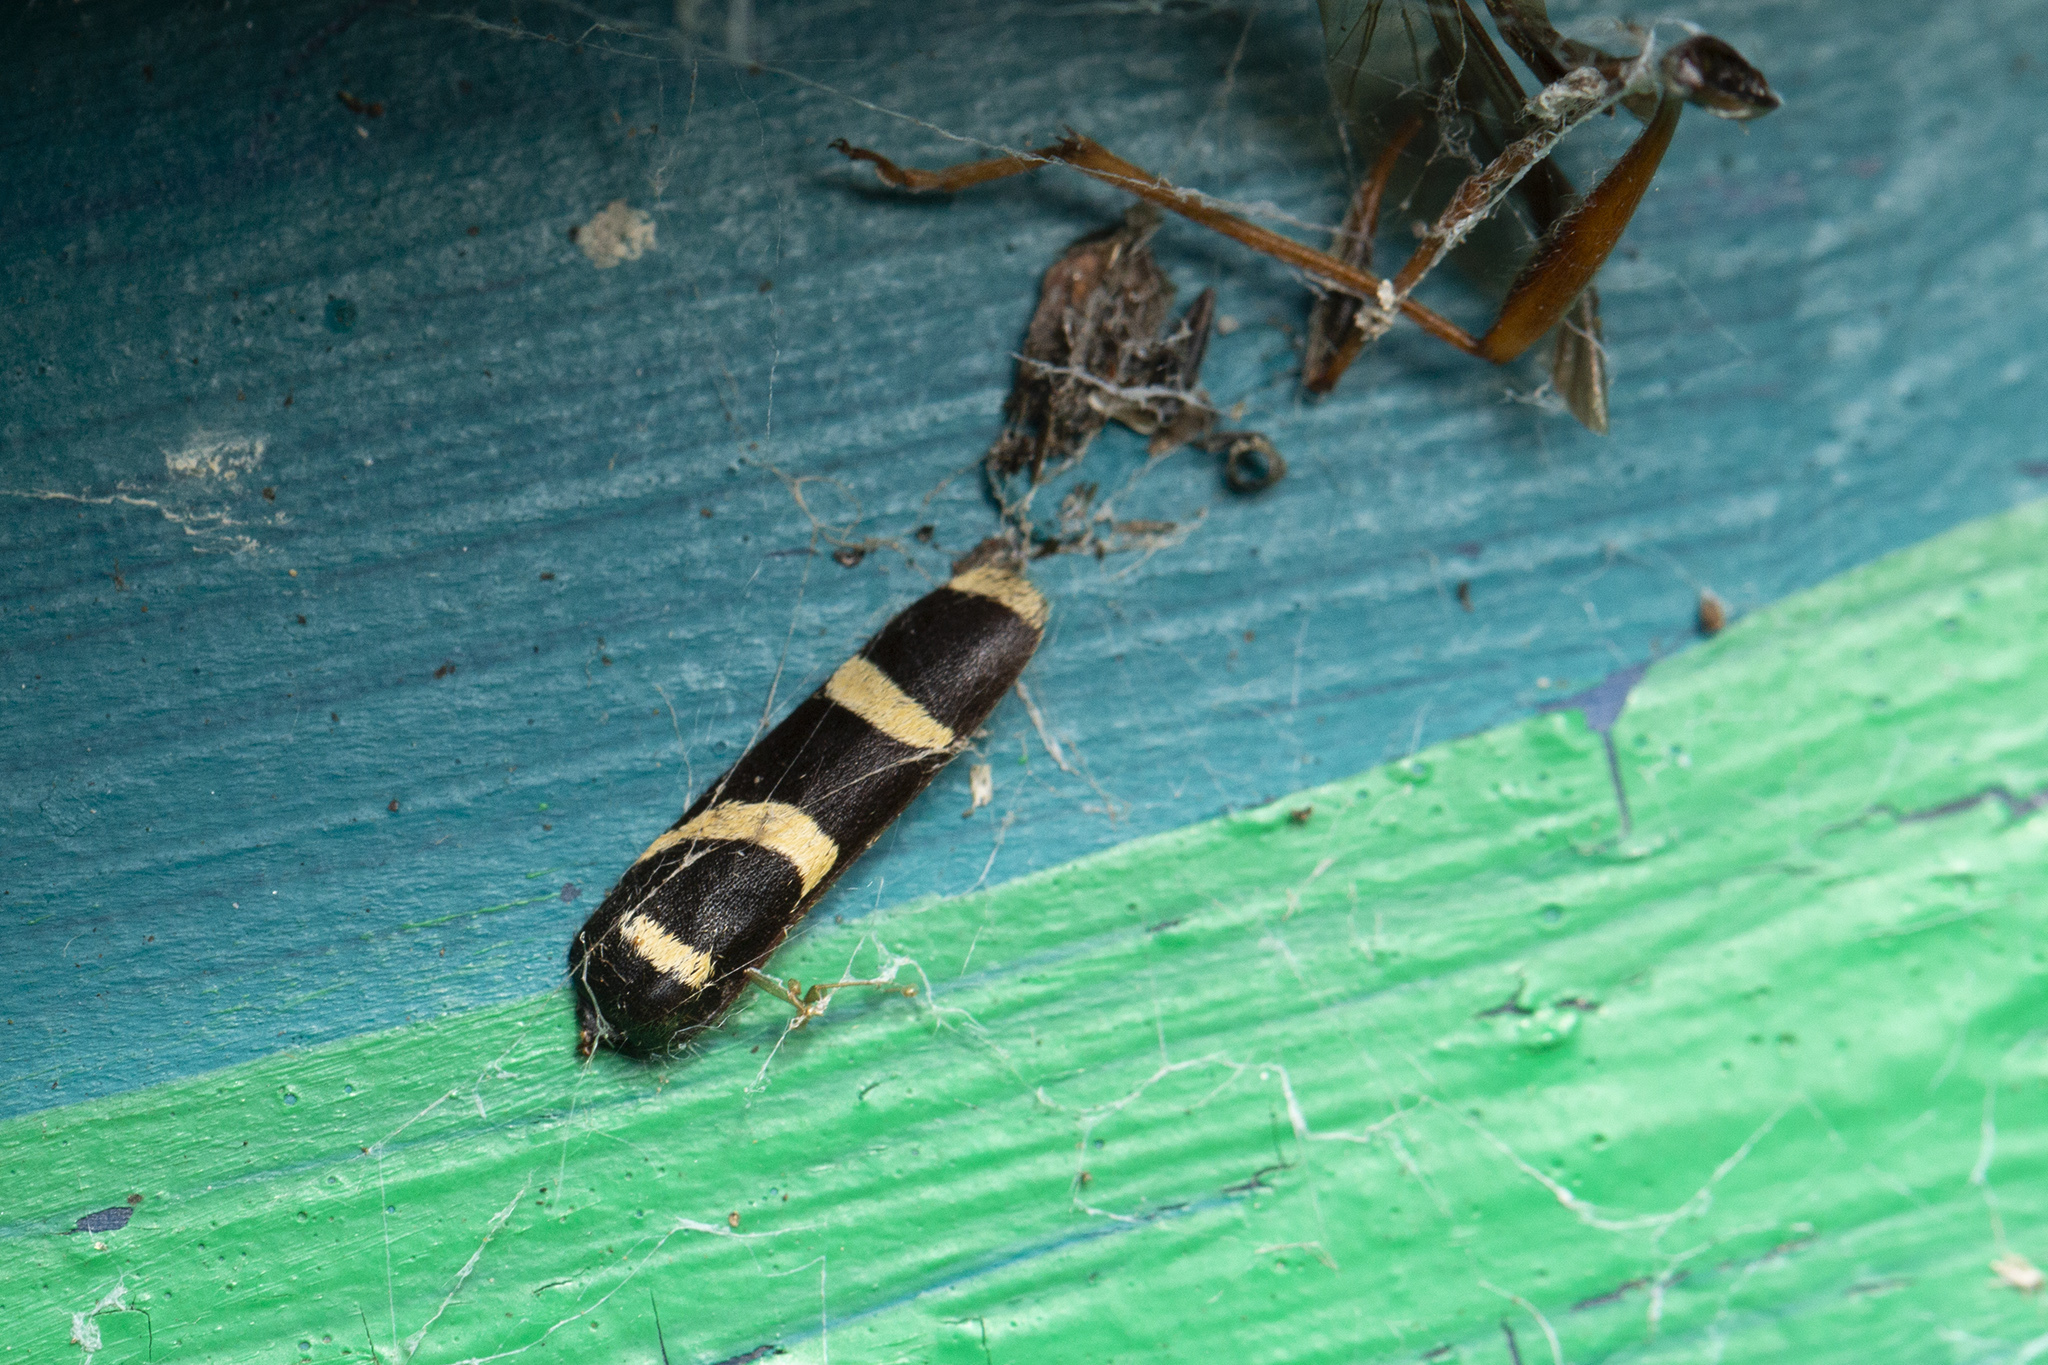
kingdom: Animalia
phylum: Arthropoda
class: Insecta
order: Coleoptera
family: Cerambycidae
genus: Clytus
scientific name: Clytus arietis
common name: Wasp beetle
